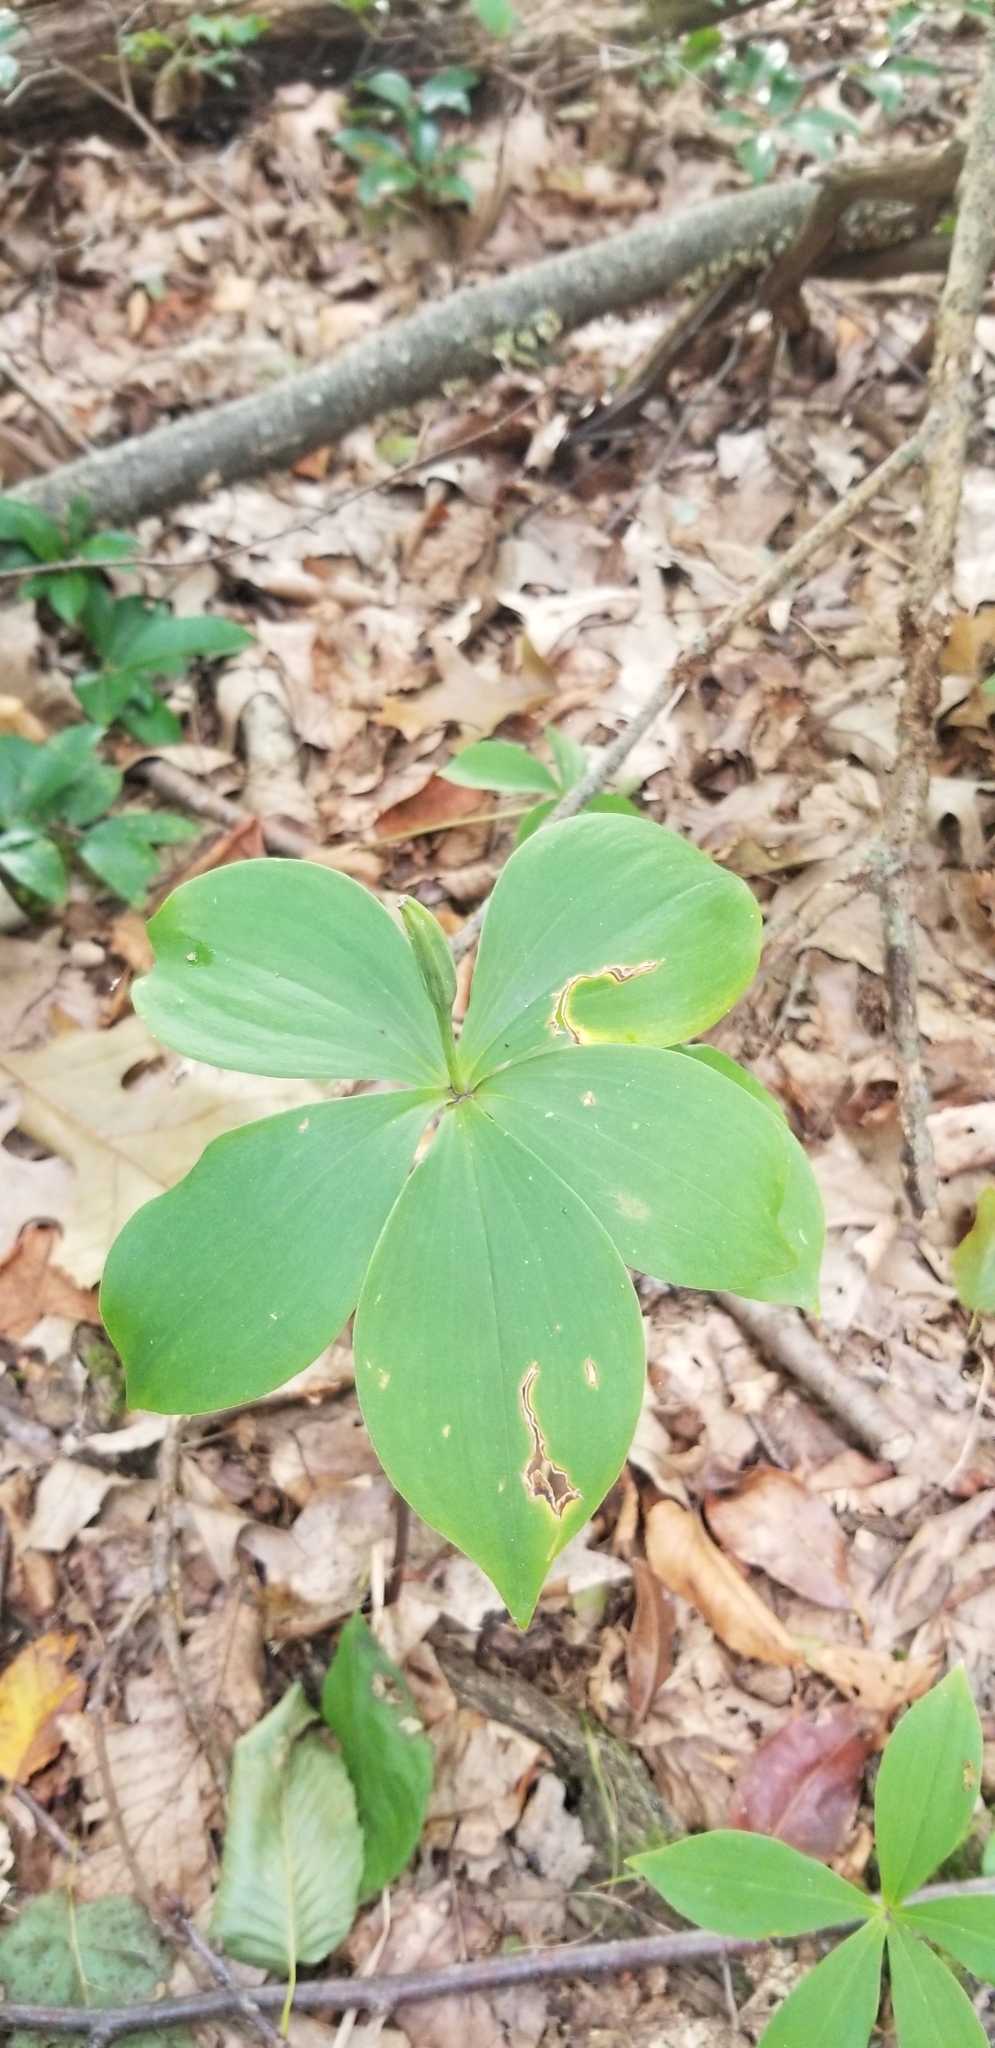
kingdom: Plantae
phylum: Tracheophyta
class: Liliopsida
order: Asparagales
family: Orchidaceae
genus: Isotria
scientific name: Isotria verticillata
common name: Large whorled pogonia
